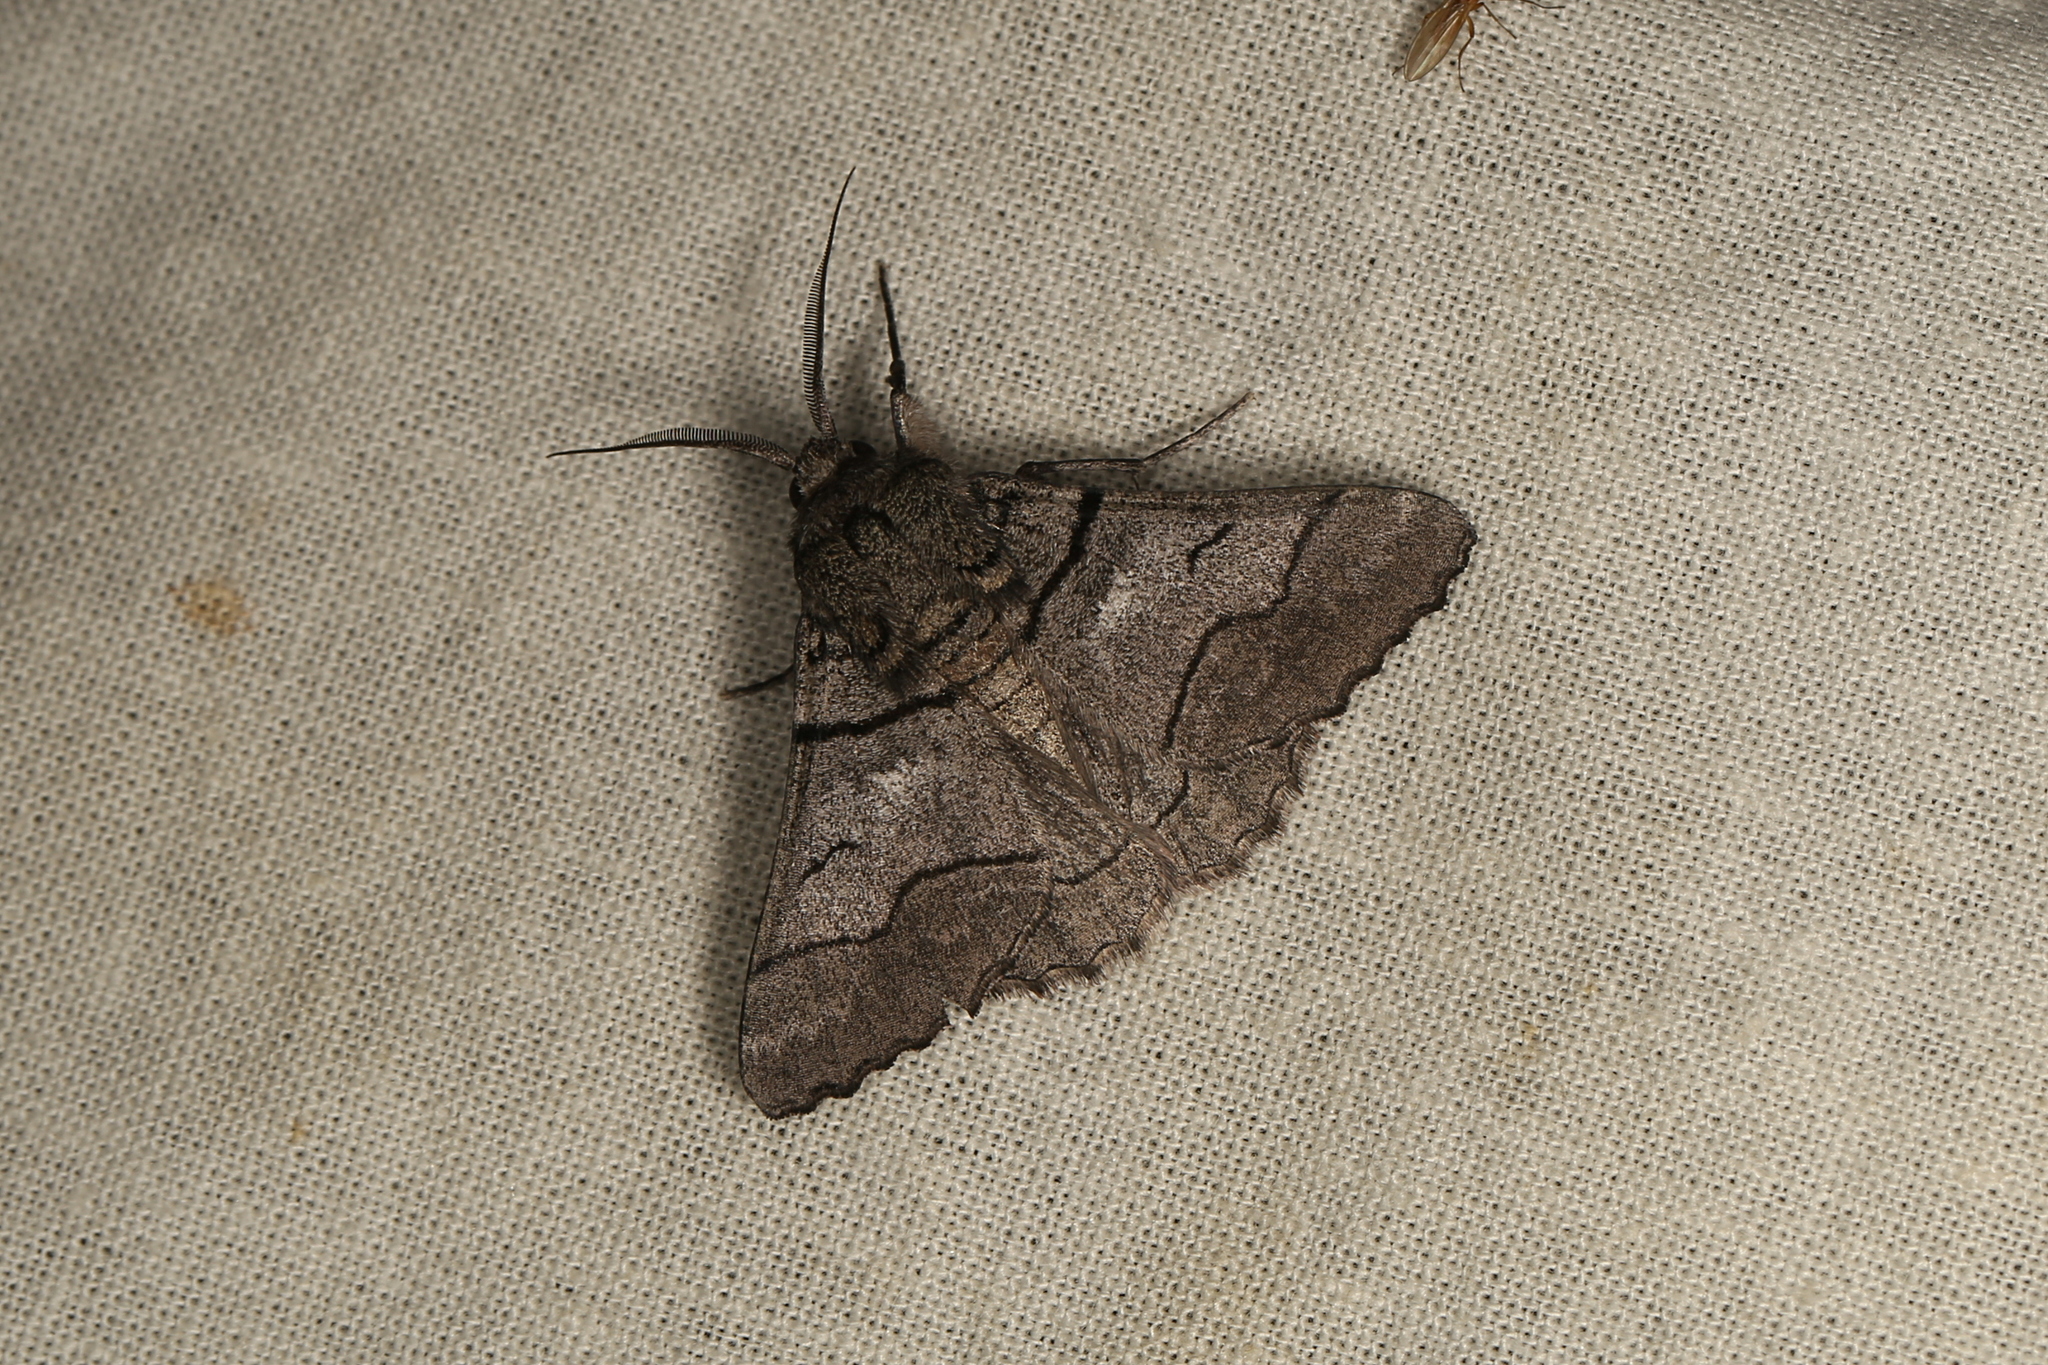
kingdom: Animalia
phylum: Arthropoda
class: Insecta
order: Lepidoptera
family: Geometridae
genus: Hypobapta
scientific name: Hypobapta diffundens
